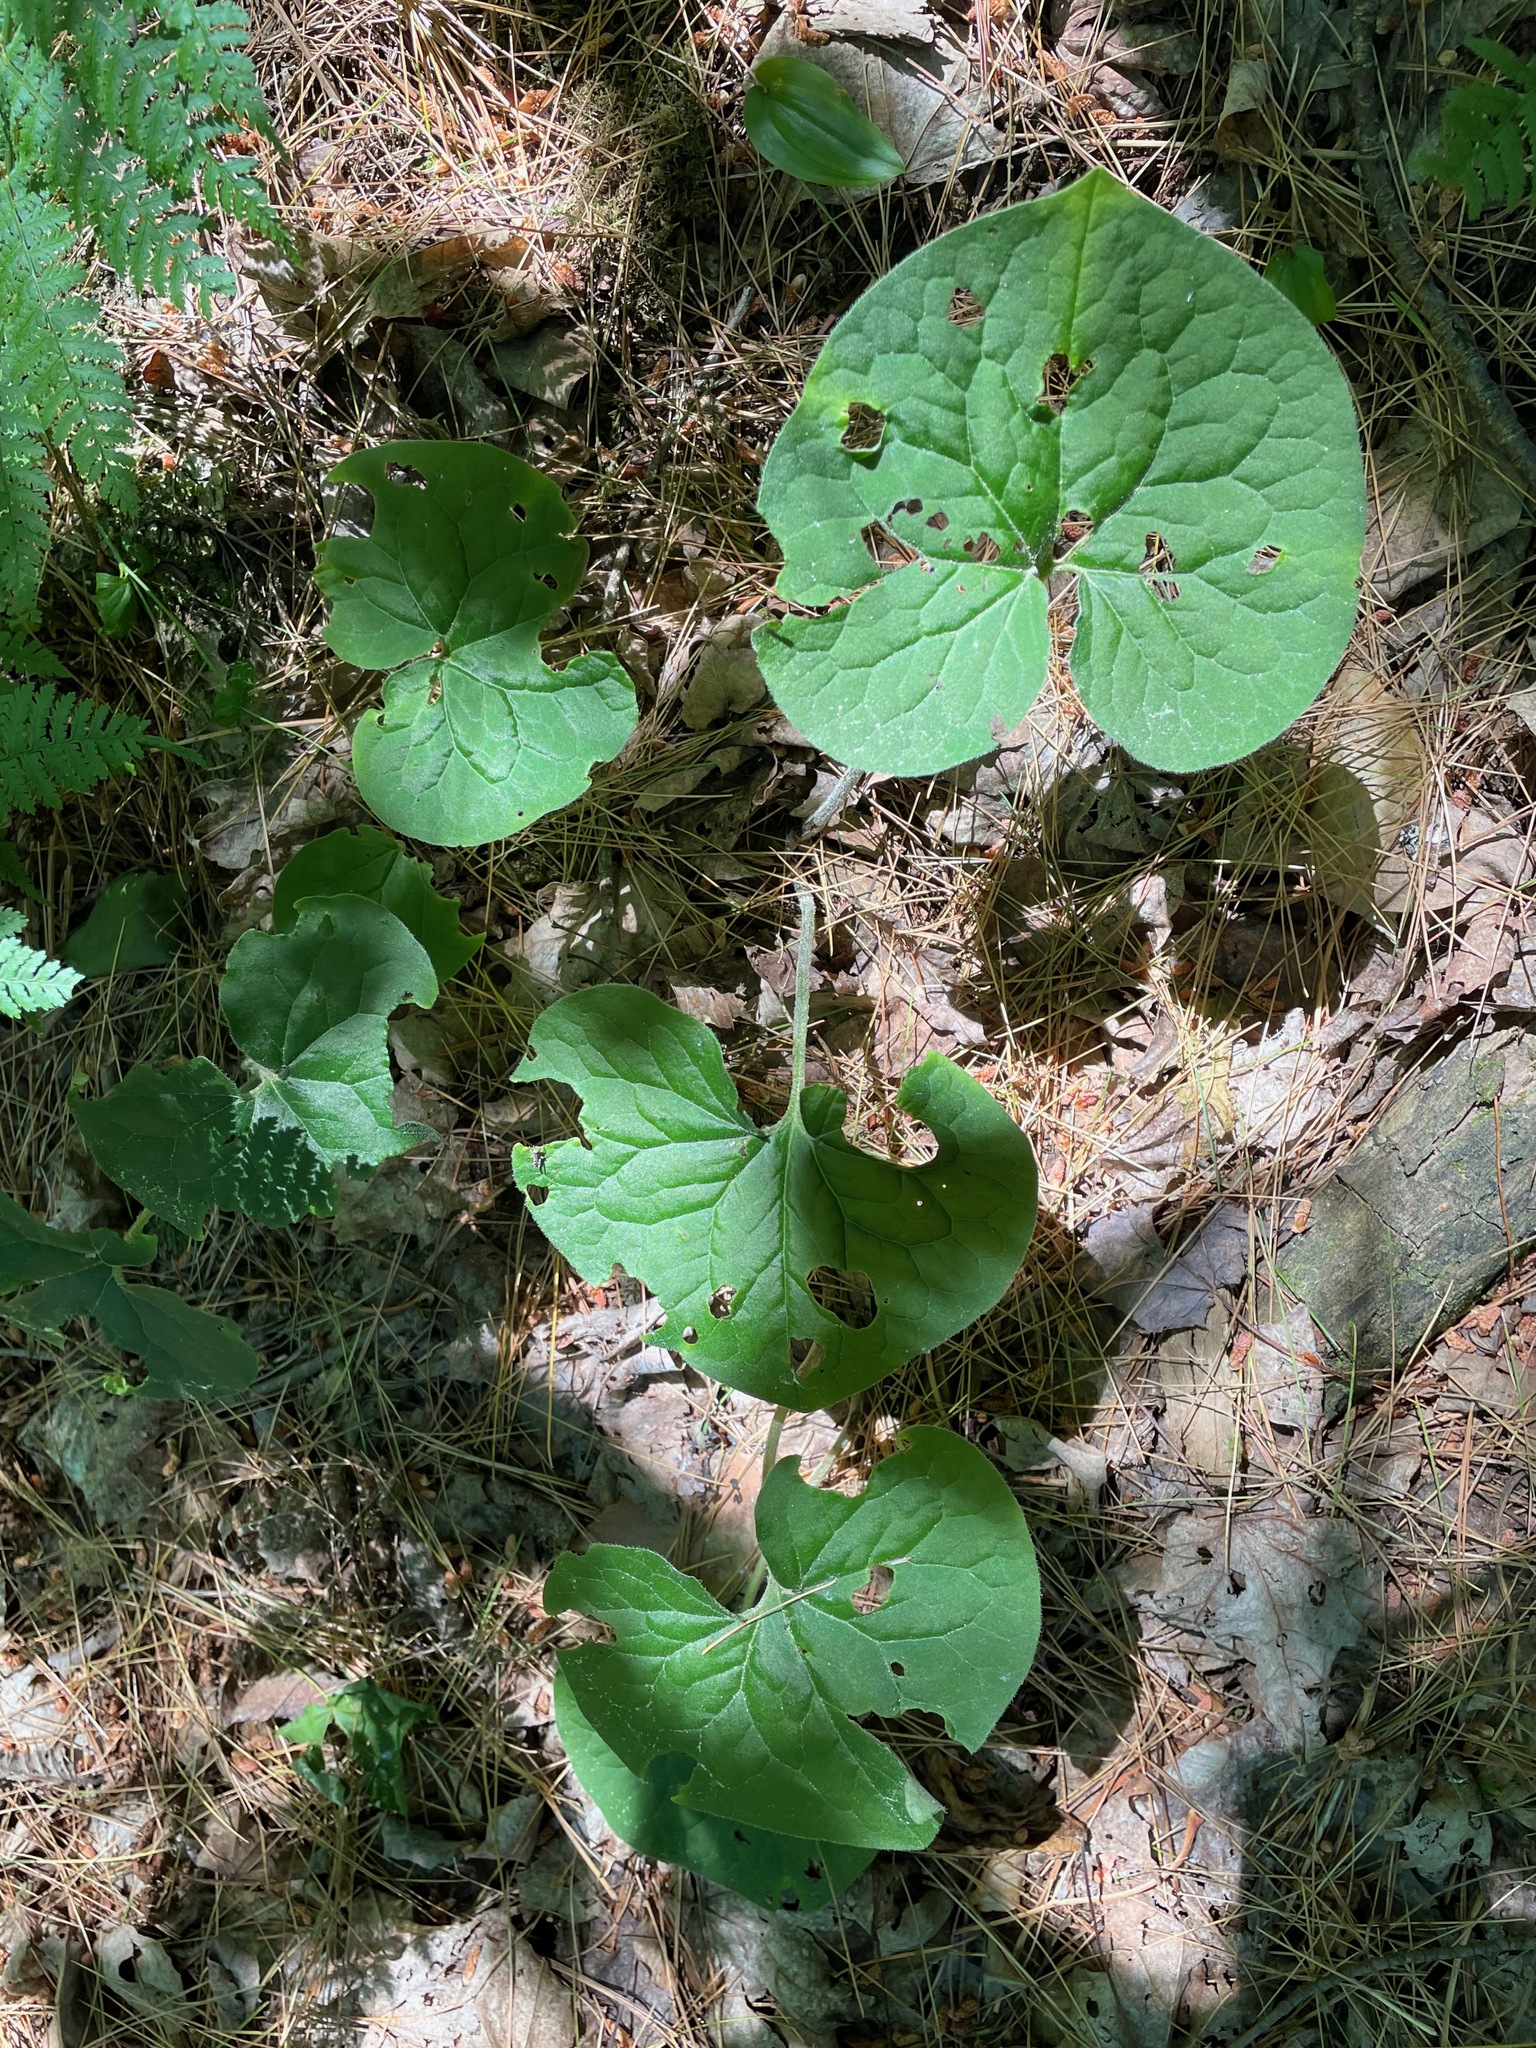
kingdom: Plantae
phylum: Tracheophyta
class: Magnoliopsida
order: Piperales
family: Aristolochiaceae
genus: Asarum
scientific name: Asarum canadense
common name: Wild ginger
